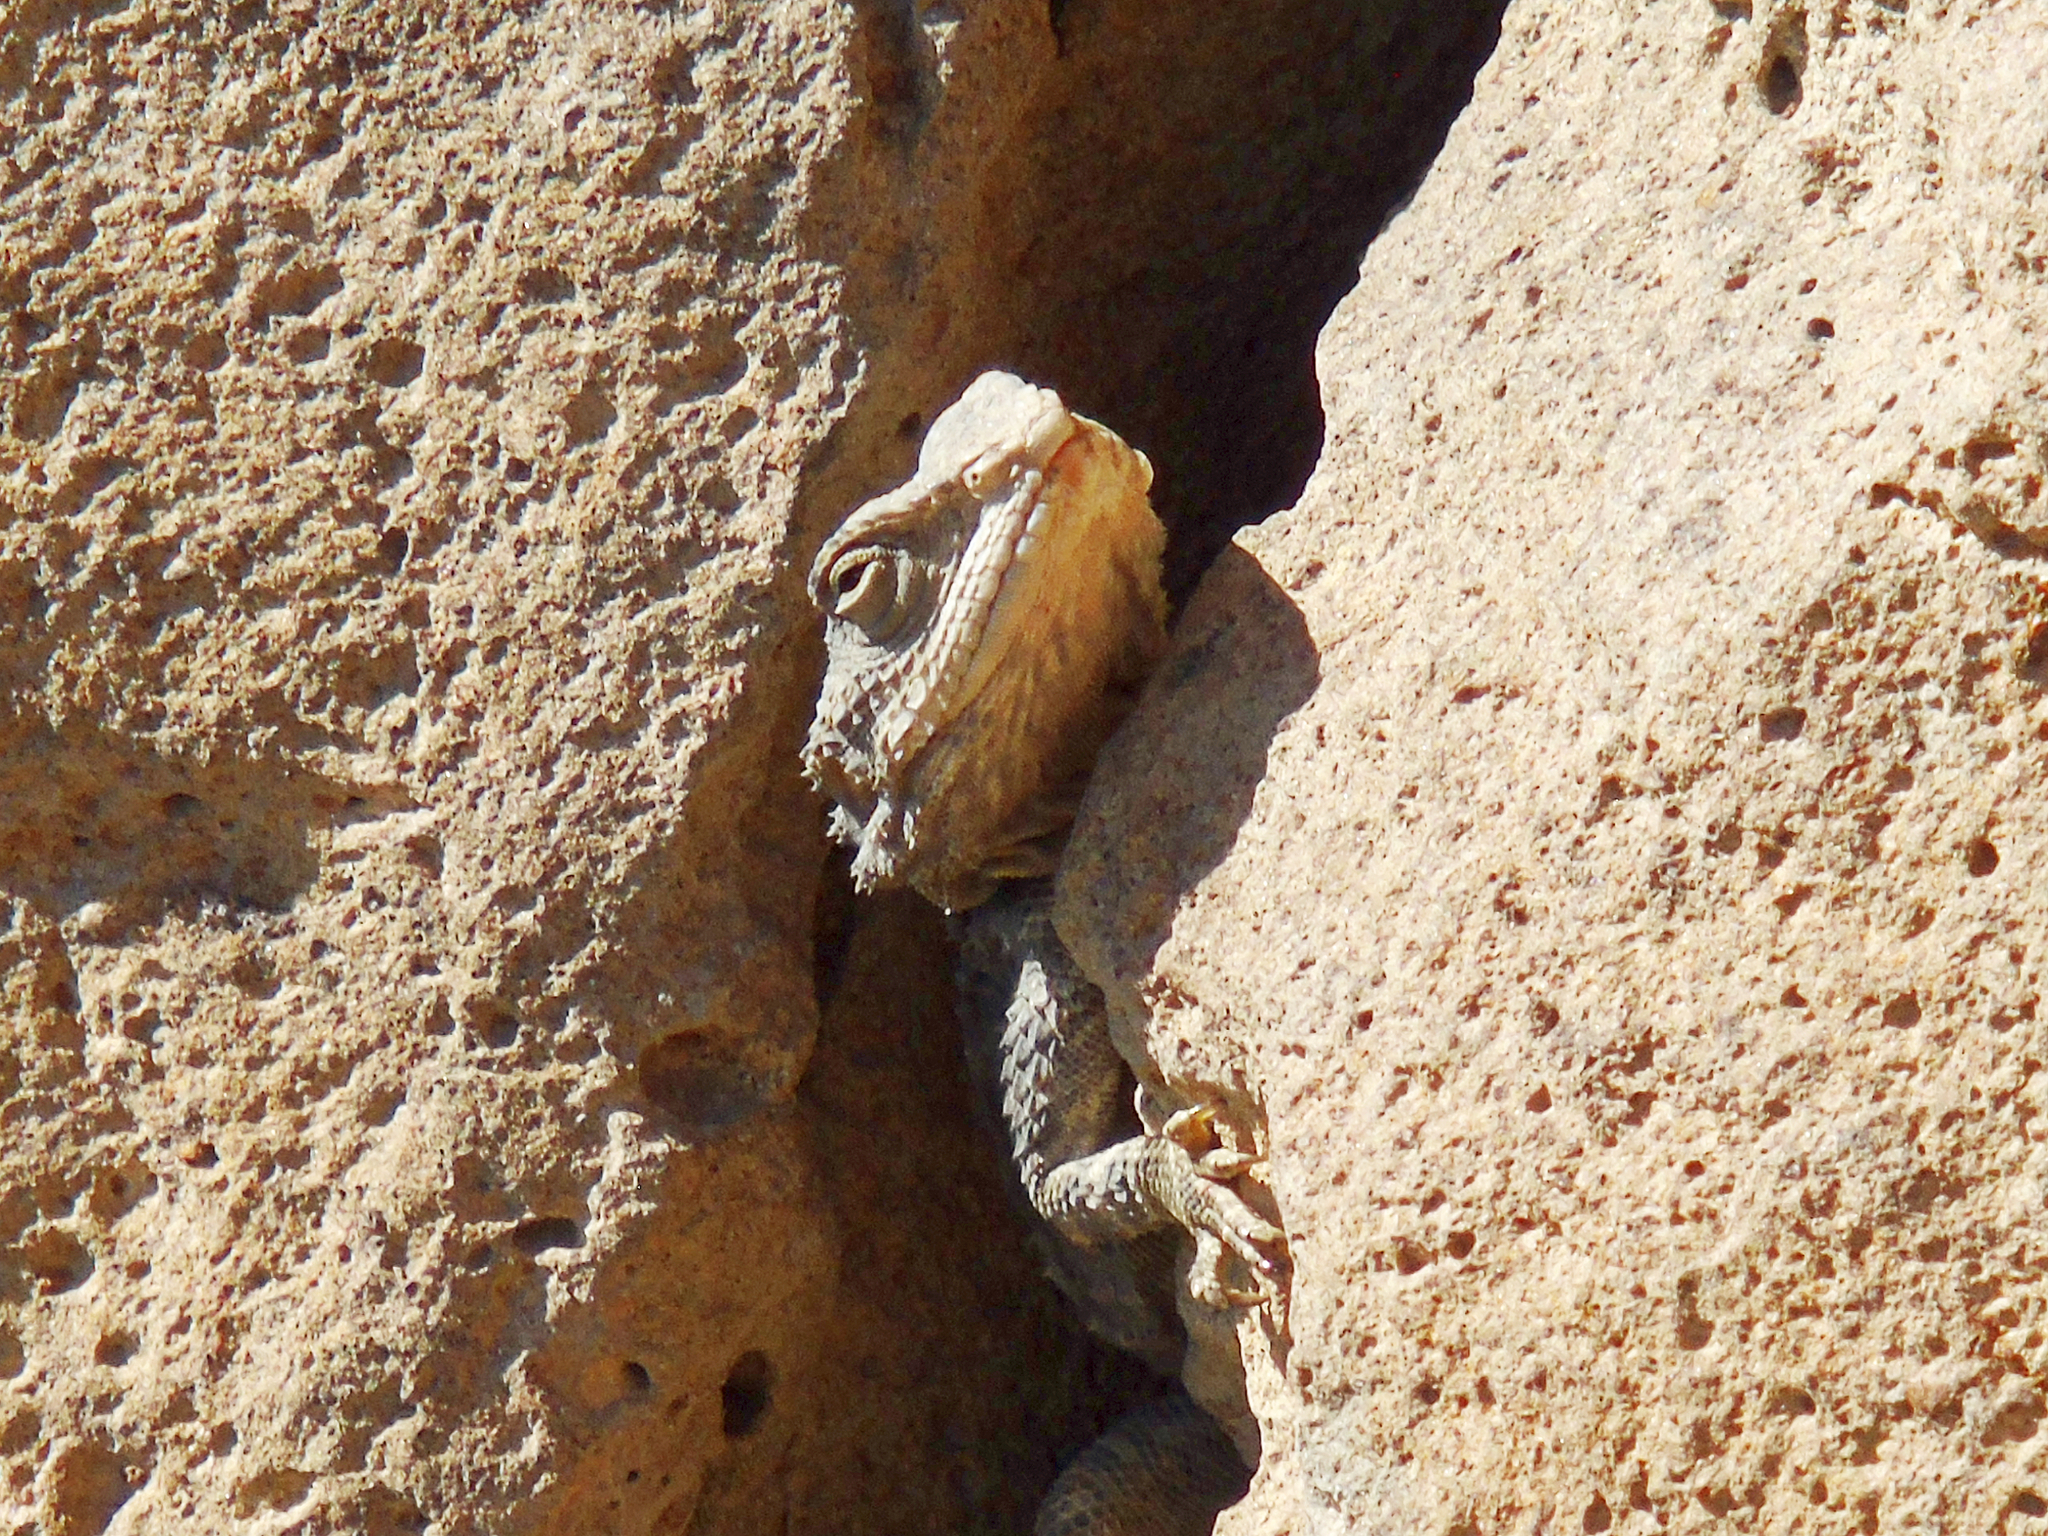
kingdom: Animalia
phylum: Chordata
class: Squamata
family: Agamidae
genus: Stellagama
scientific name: Stellagama stellio
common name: Starred agama
